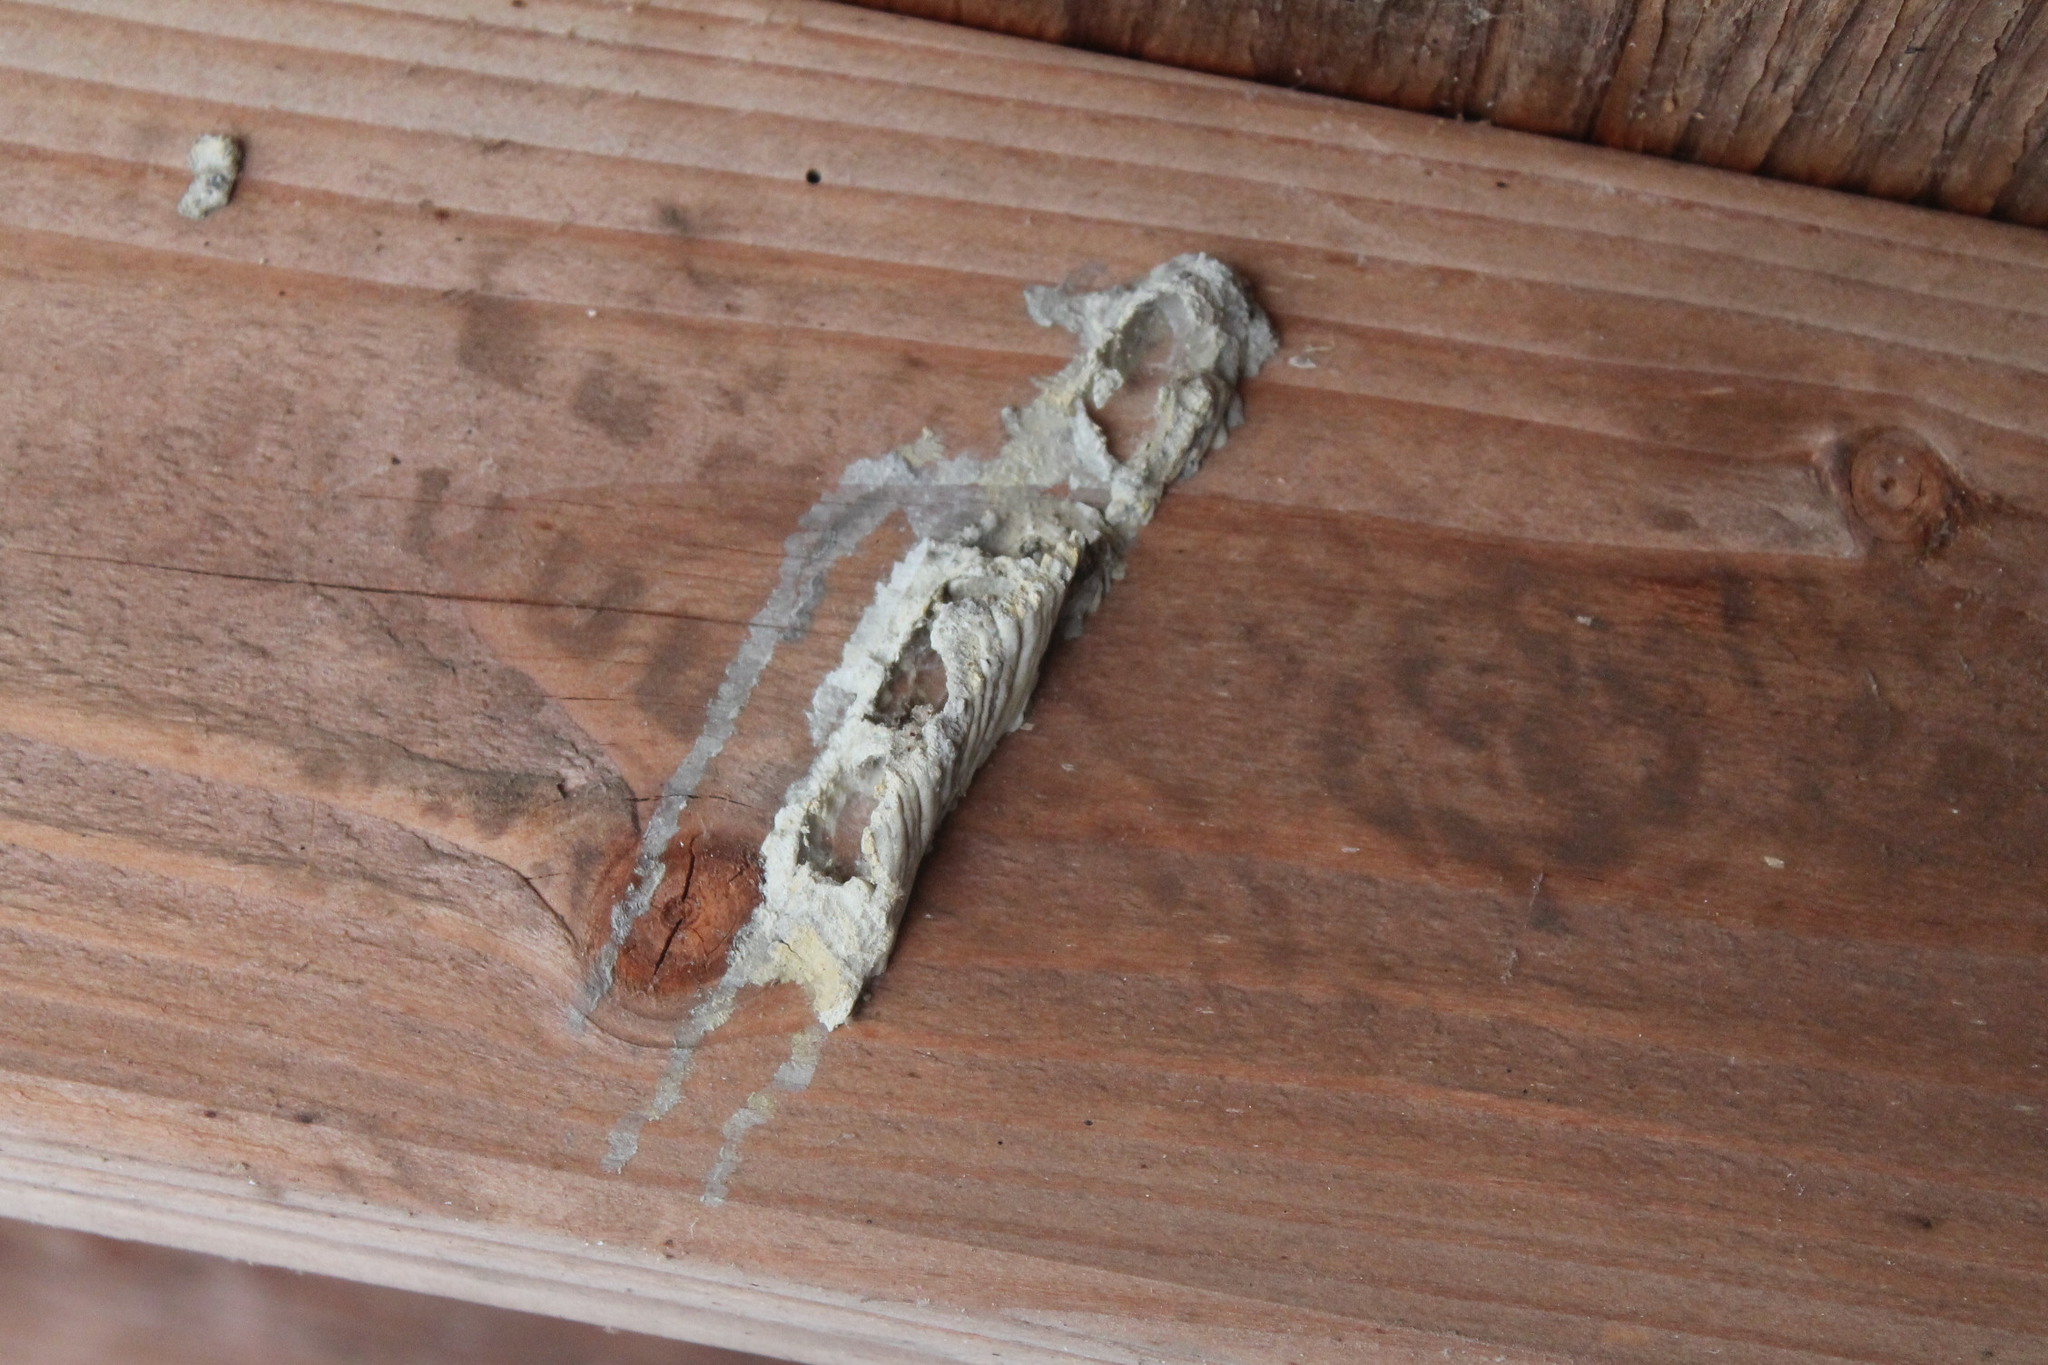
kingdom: Animalia
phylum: Arthropoda
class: Insecta
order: Hymenoptera
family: Crabronidae
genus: Trypoxylon
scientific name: Trypoxylon politum
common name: Organ-pipe mud-dauber wasp
